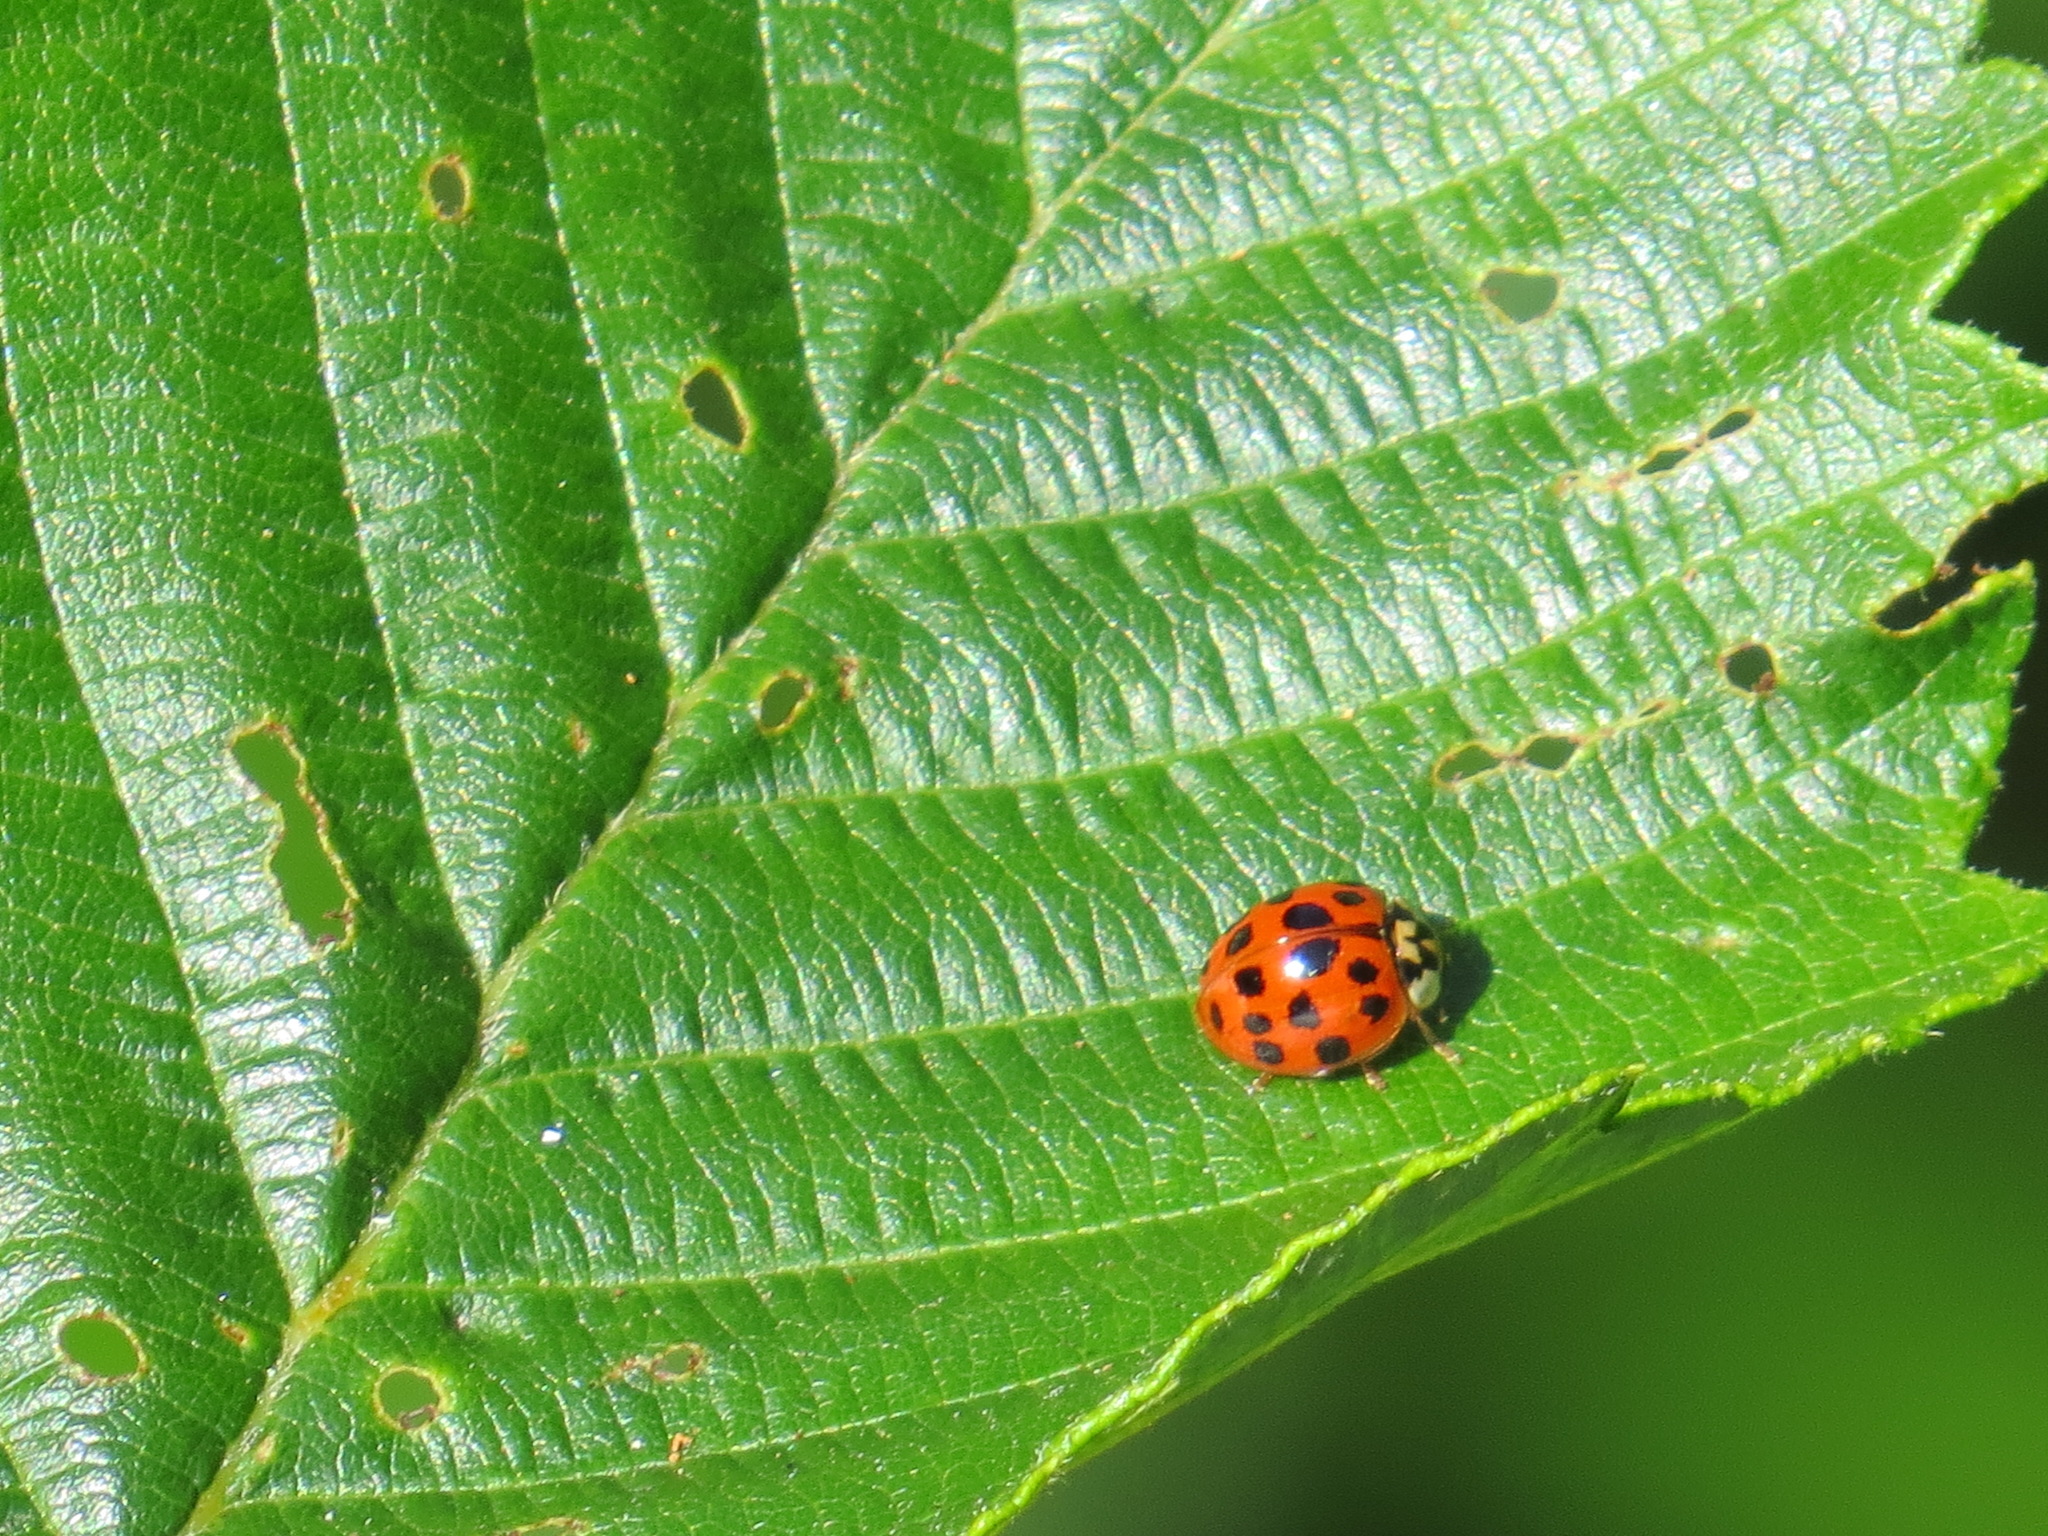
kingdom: Animalia
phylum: Arthropoda
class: Insecta
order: Coleoptera
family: Coccinellidae
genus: Harmonia
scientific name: Harmonia axyridis
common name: Harlequin ladybird
